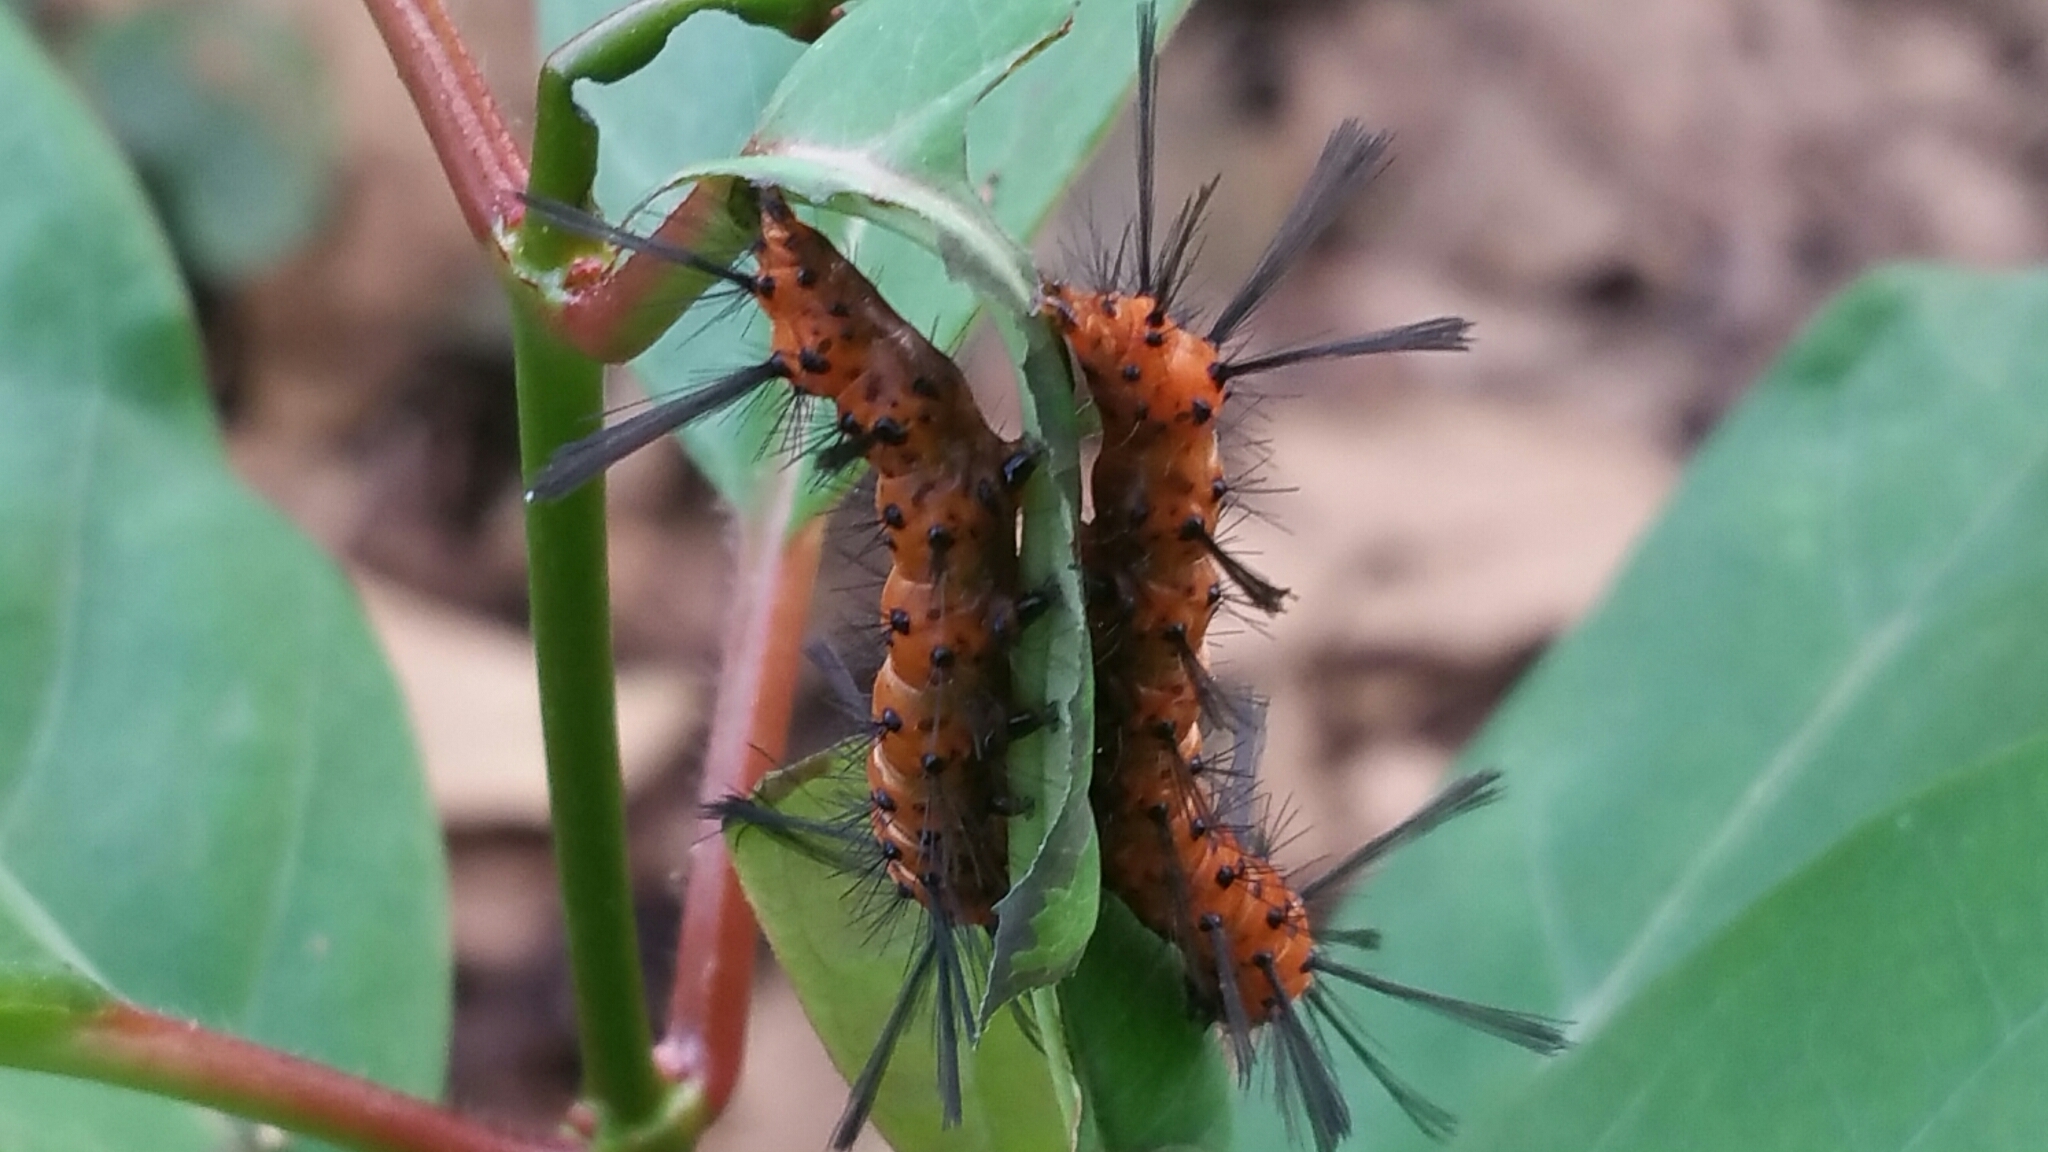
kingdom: Animalia
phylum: Arthropoda
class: Insecta
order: Lepidoptera
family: Erebidae
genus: Syntomeida
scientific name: Syntomeida epilais
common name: Polka-dot wasp moth
